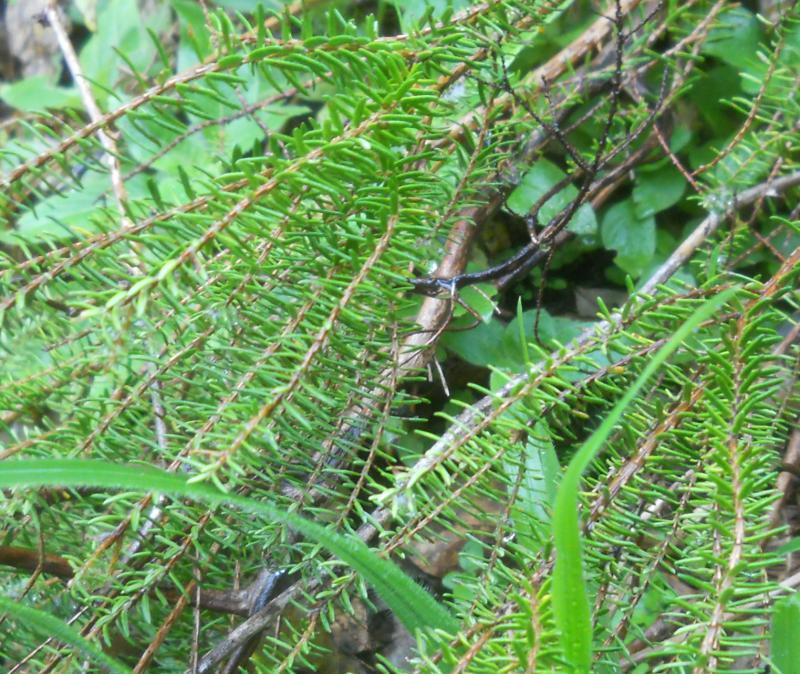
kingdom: Plantae
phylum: Tracheophyta
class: Magnoliopsida
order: Ericales
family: Ericaceae
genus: Erica
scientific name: Erica platycodon
